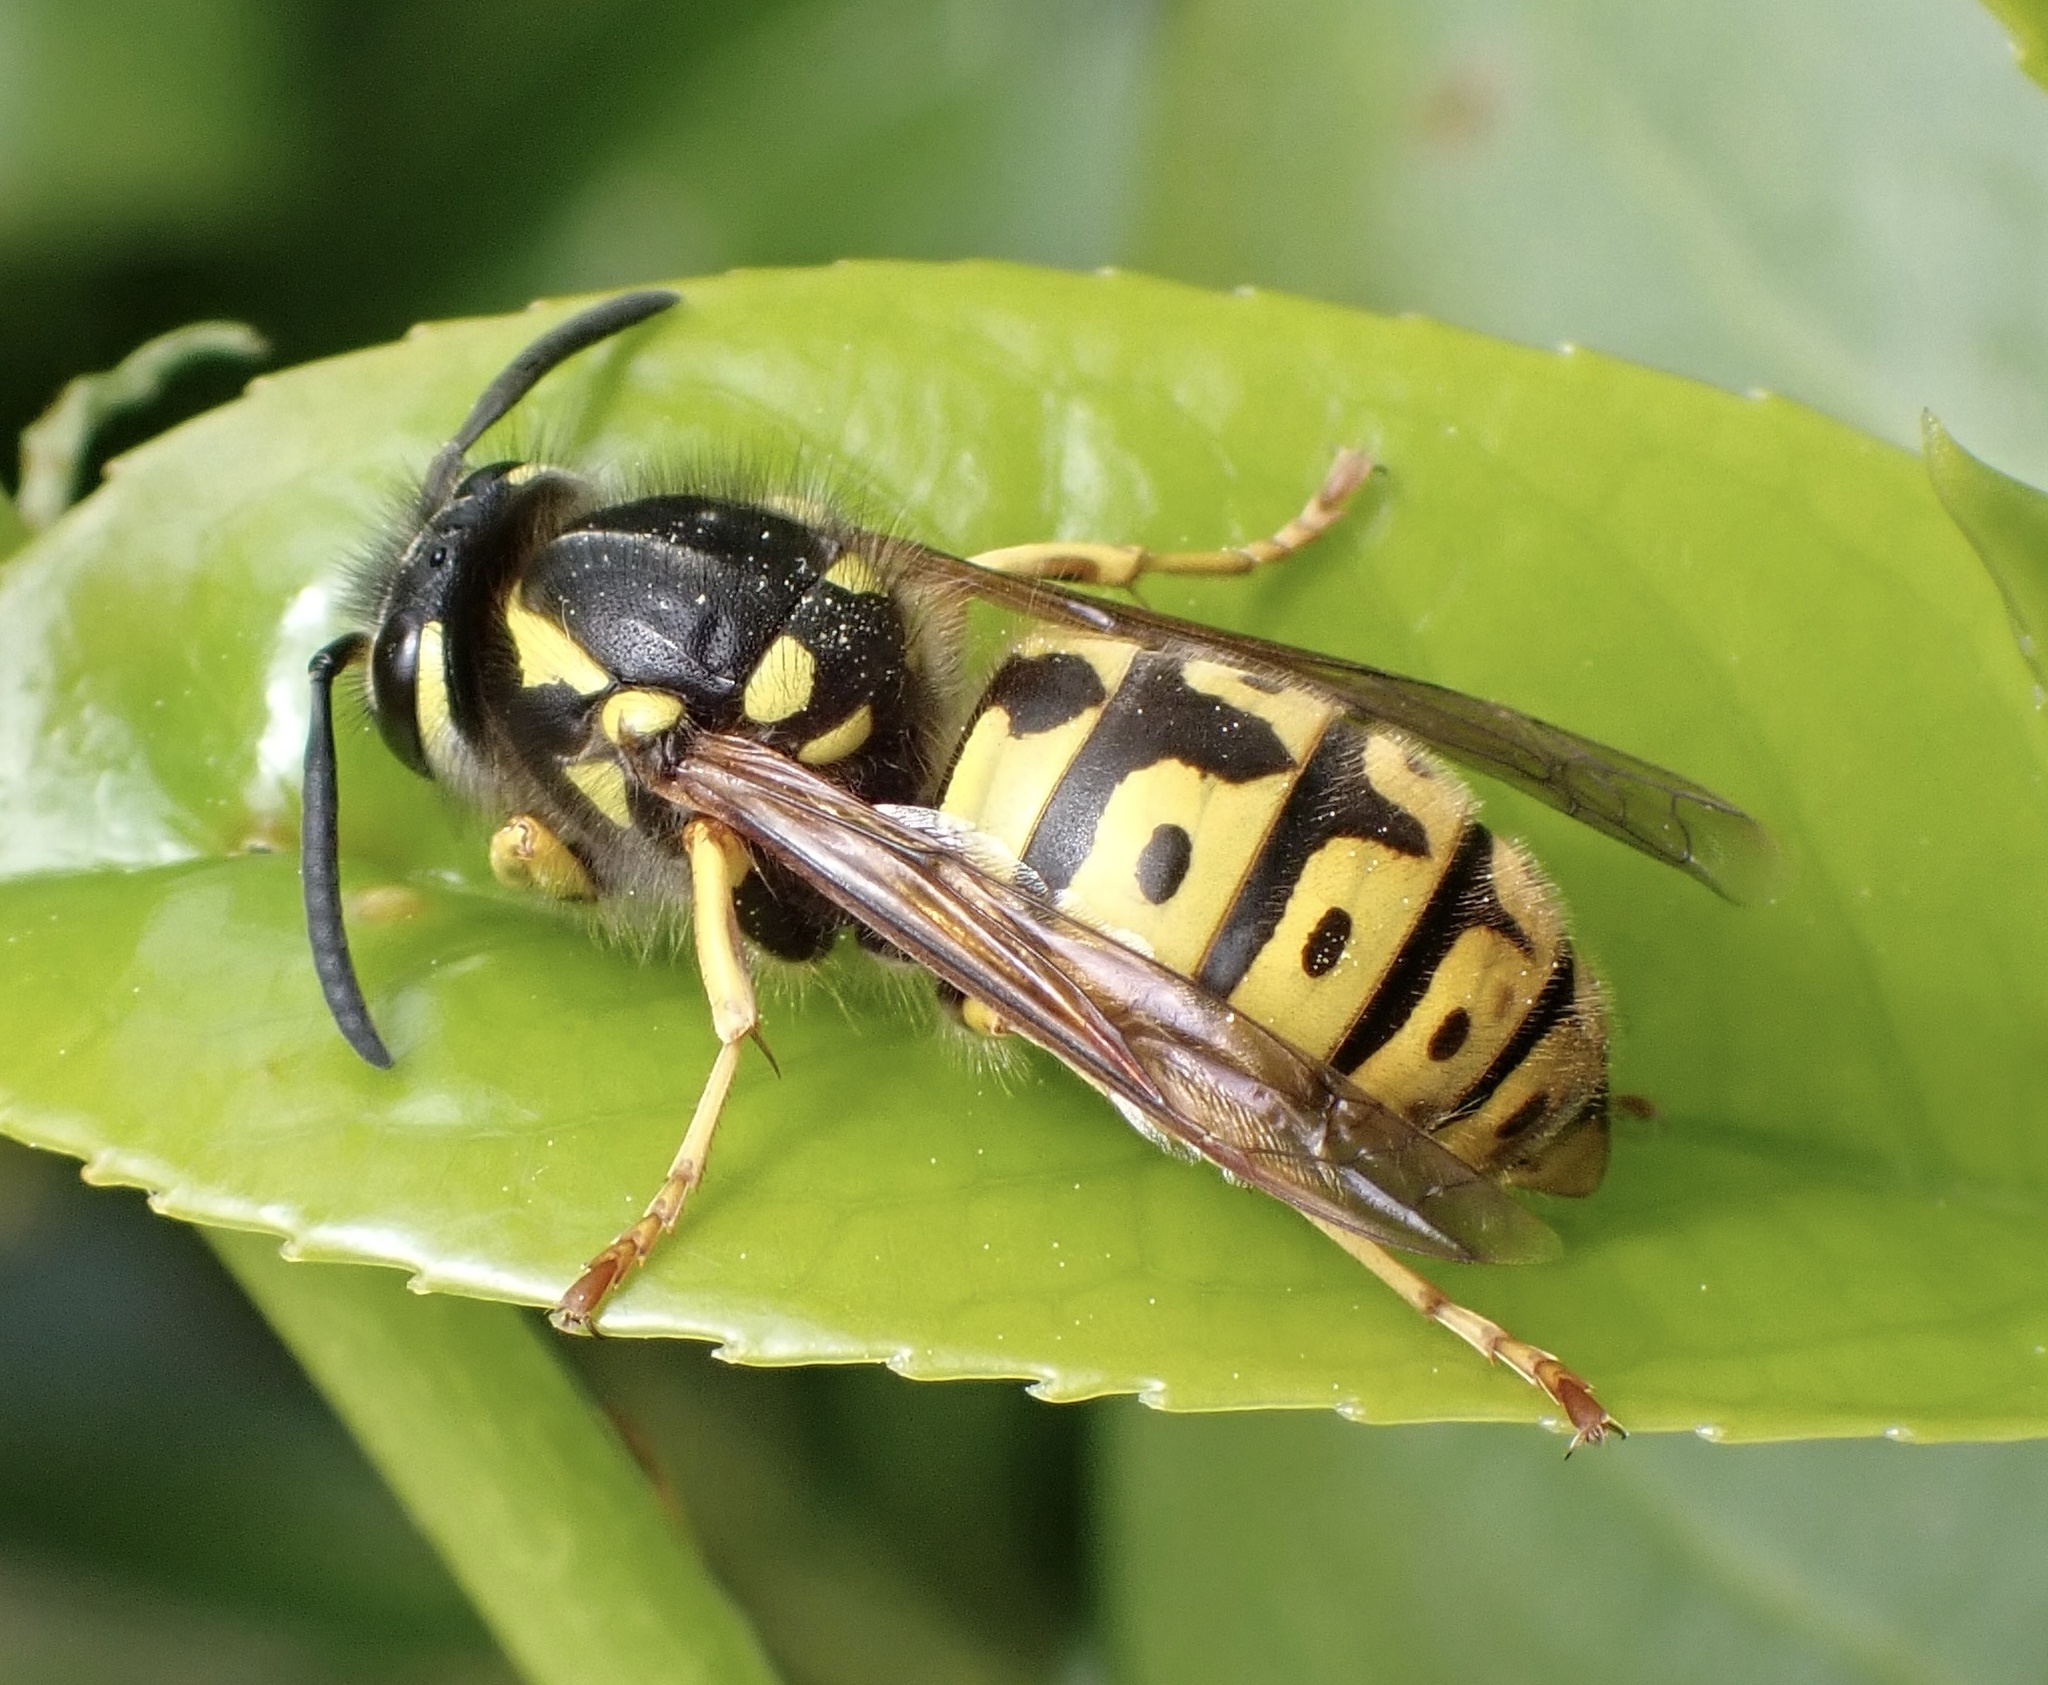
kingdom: Animalia
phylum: Arthropoda
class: Insecta
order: Hymenoptera
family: Vespidae
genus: Vespula
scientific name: Vespula germanica
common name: German wasp
